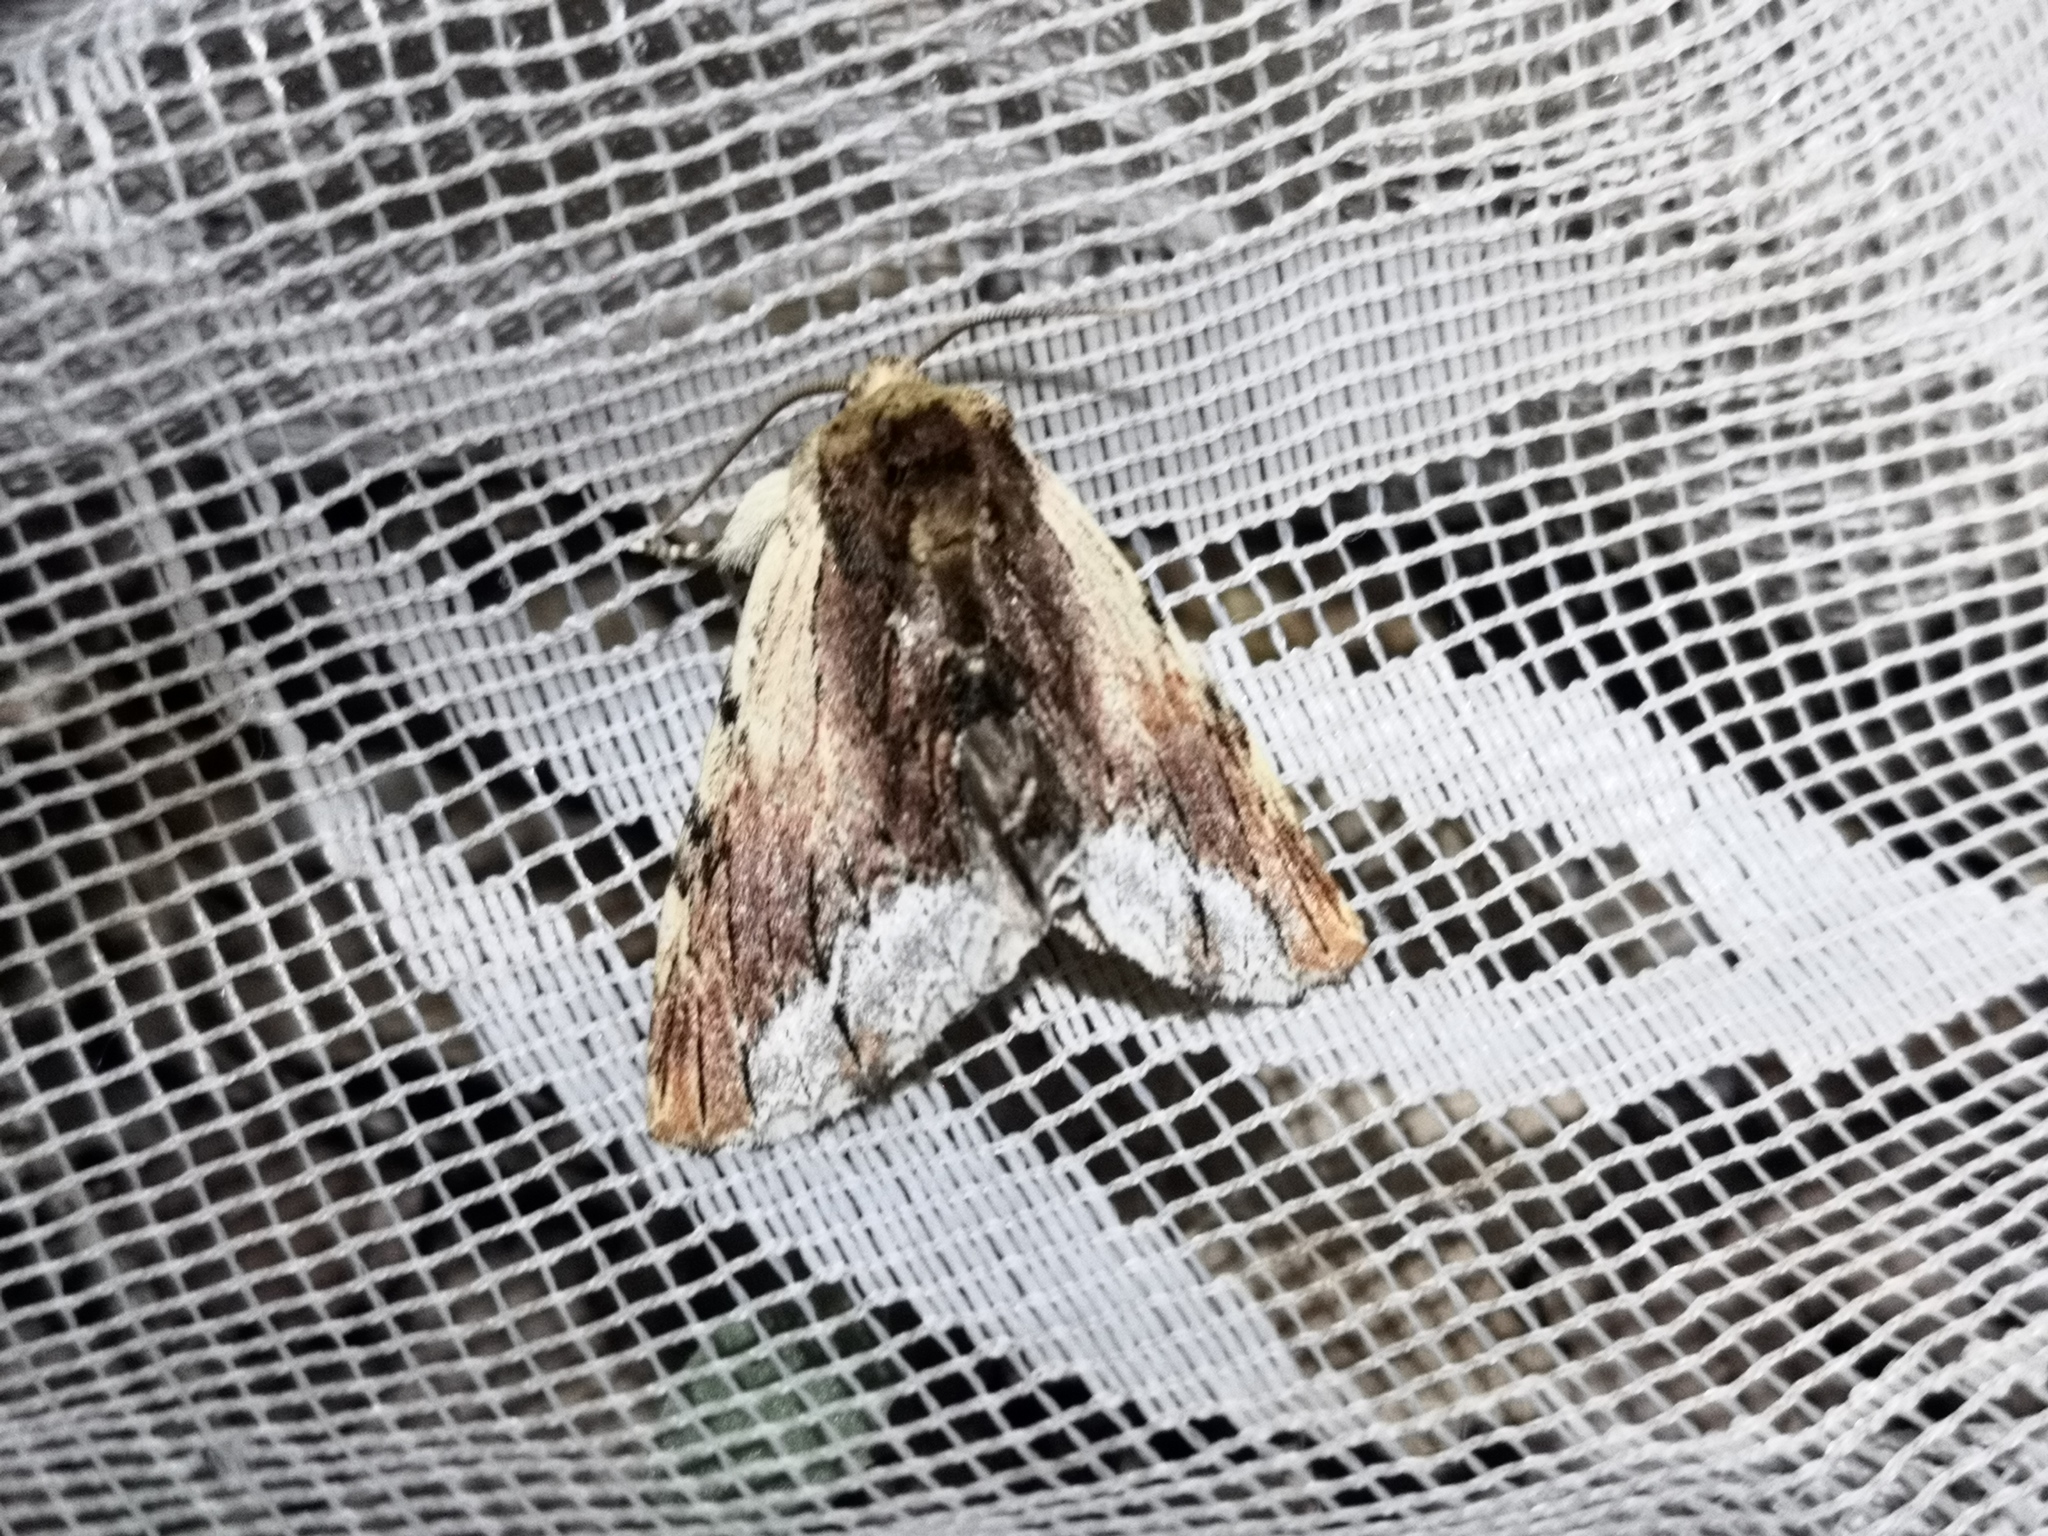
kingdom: Animalia
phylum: Arthropoda
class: Insecta
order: Lepidoptera
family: Notodontidae
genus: Ptilodon
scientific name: Ptilodon cucullina
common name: Maple prominent
